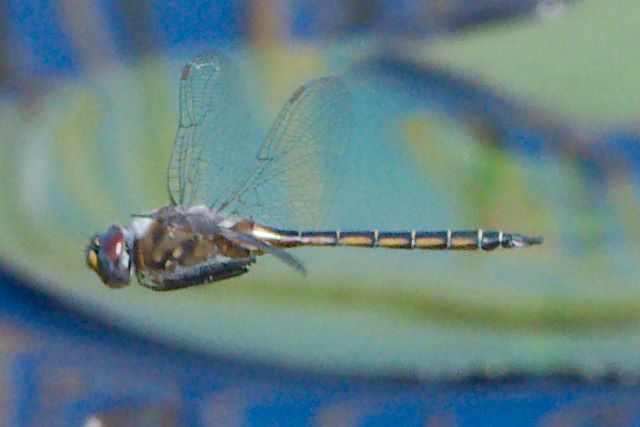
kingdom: Animalia
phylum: Arthropoda
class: Insecta
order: Odonata
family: Corduliidae
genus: Epitheca
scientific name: Epitheca stella
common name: Florida baskettail
